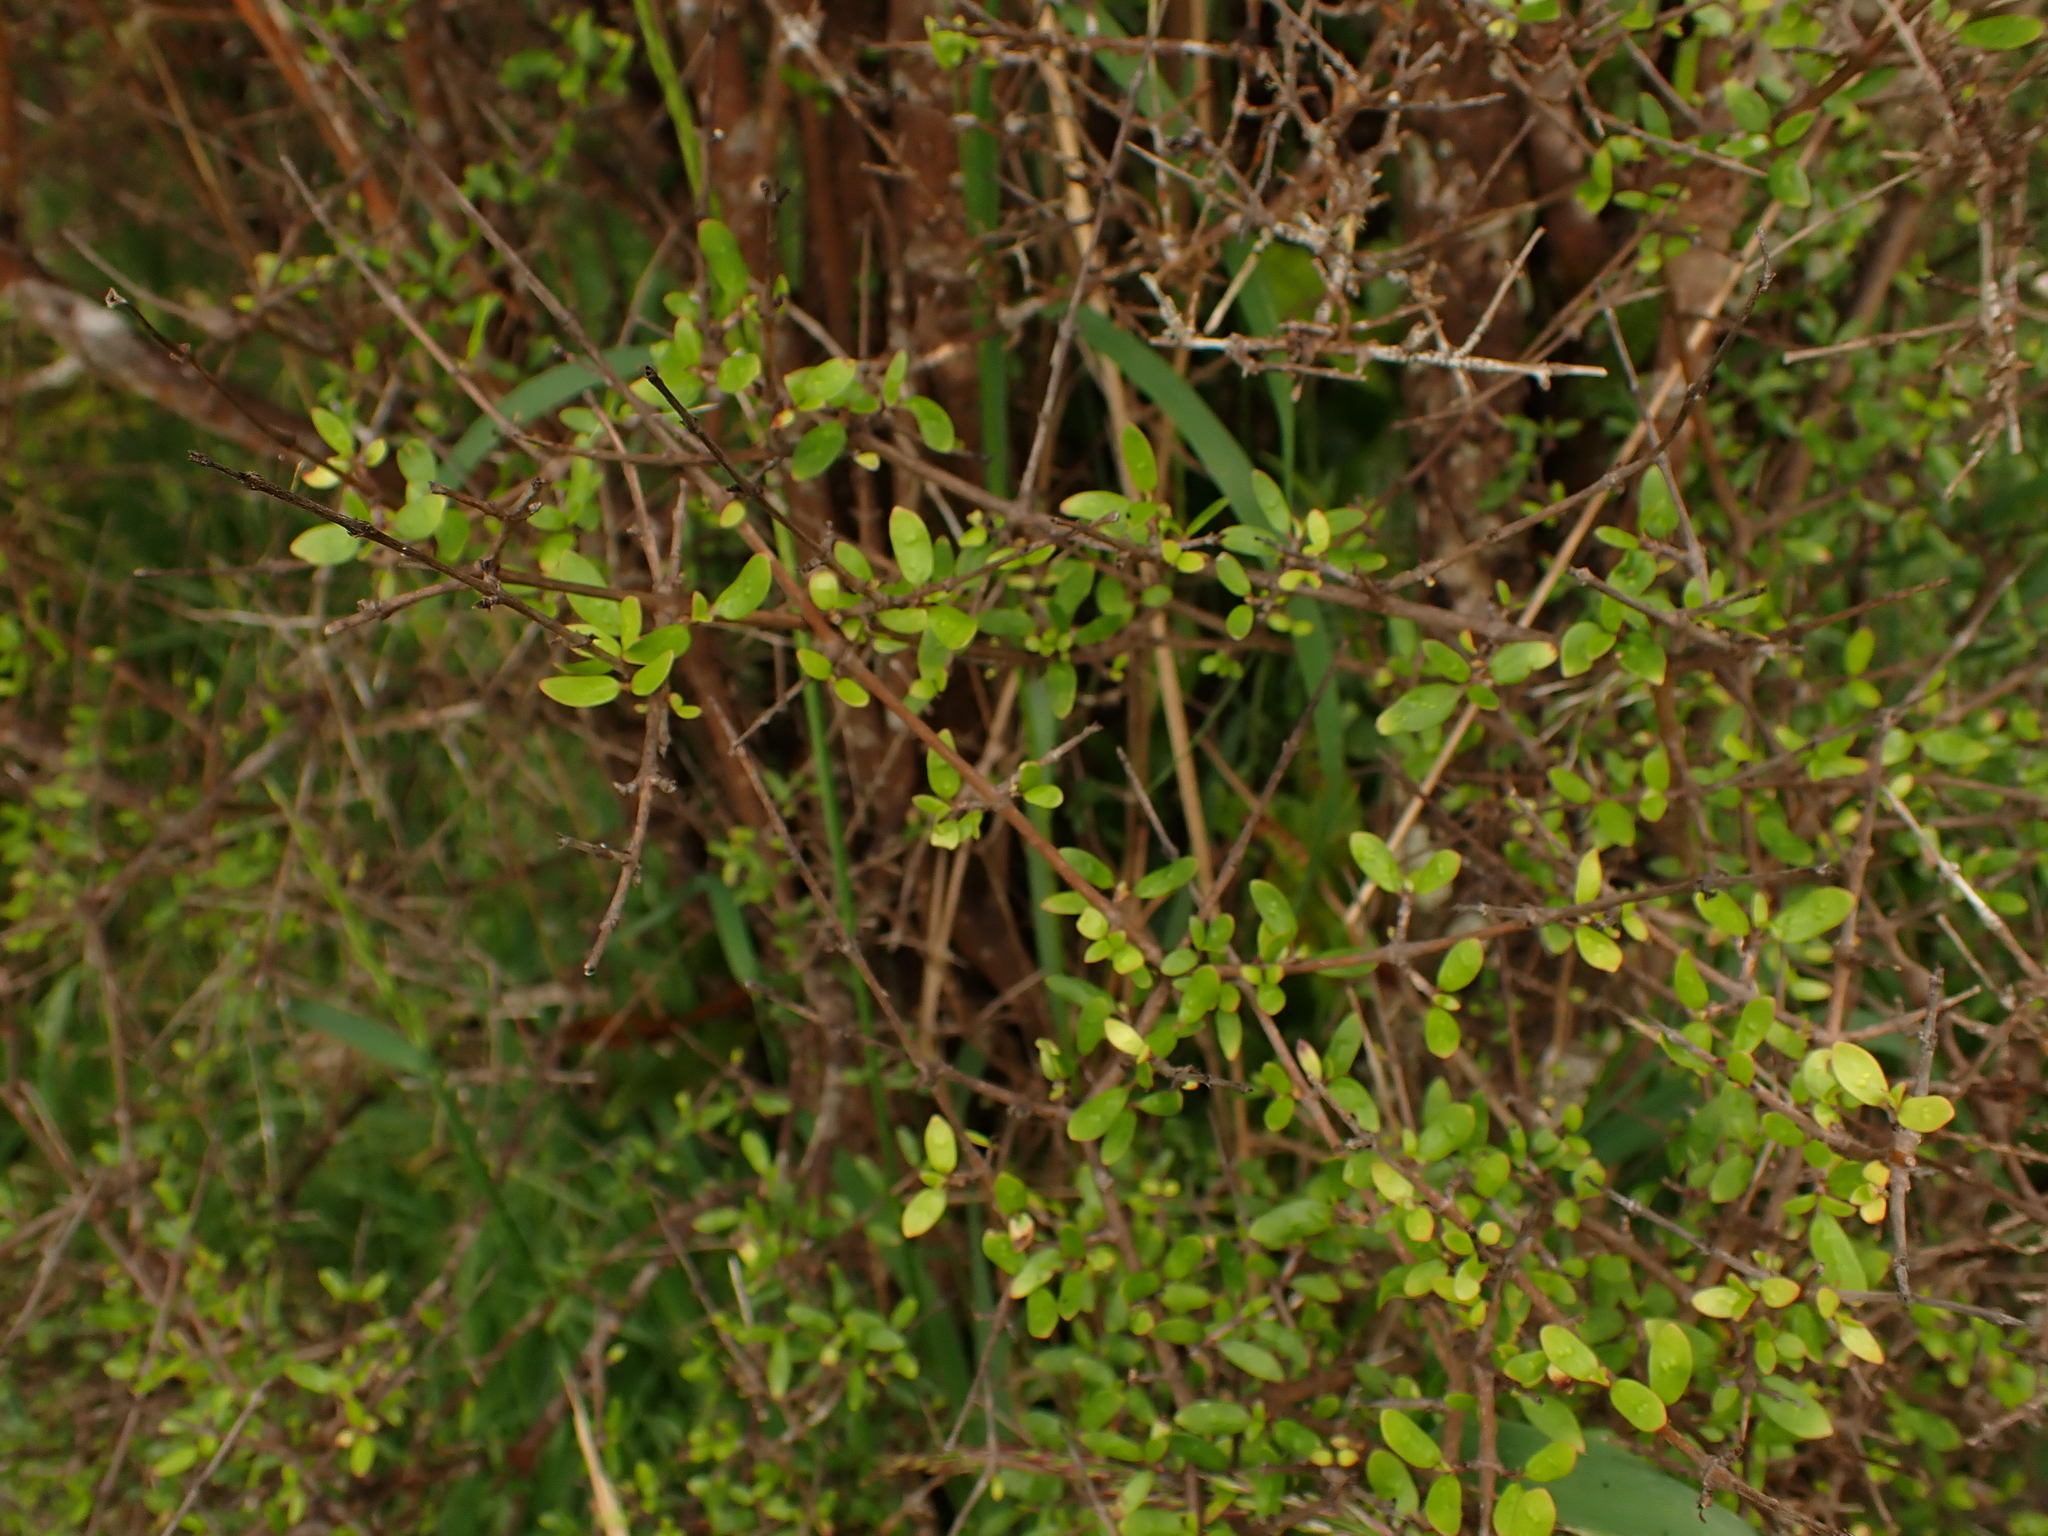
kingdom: Plantae
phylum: Tracheophyta
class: Magnoliopsida
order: Gentianales
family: Rubiaceae
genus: Coprosma
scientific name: Coprosma propinqua
